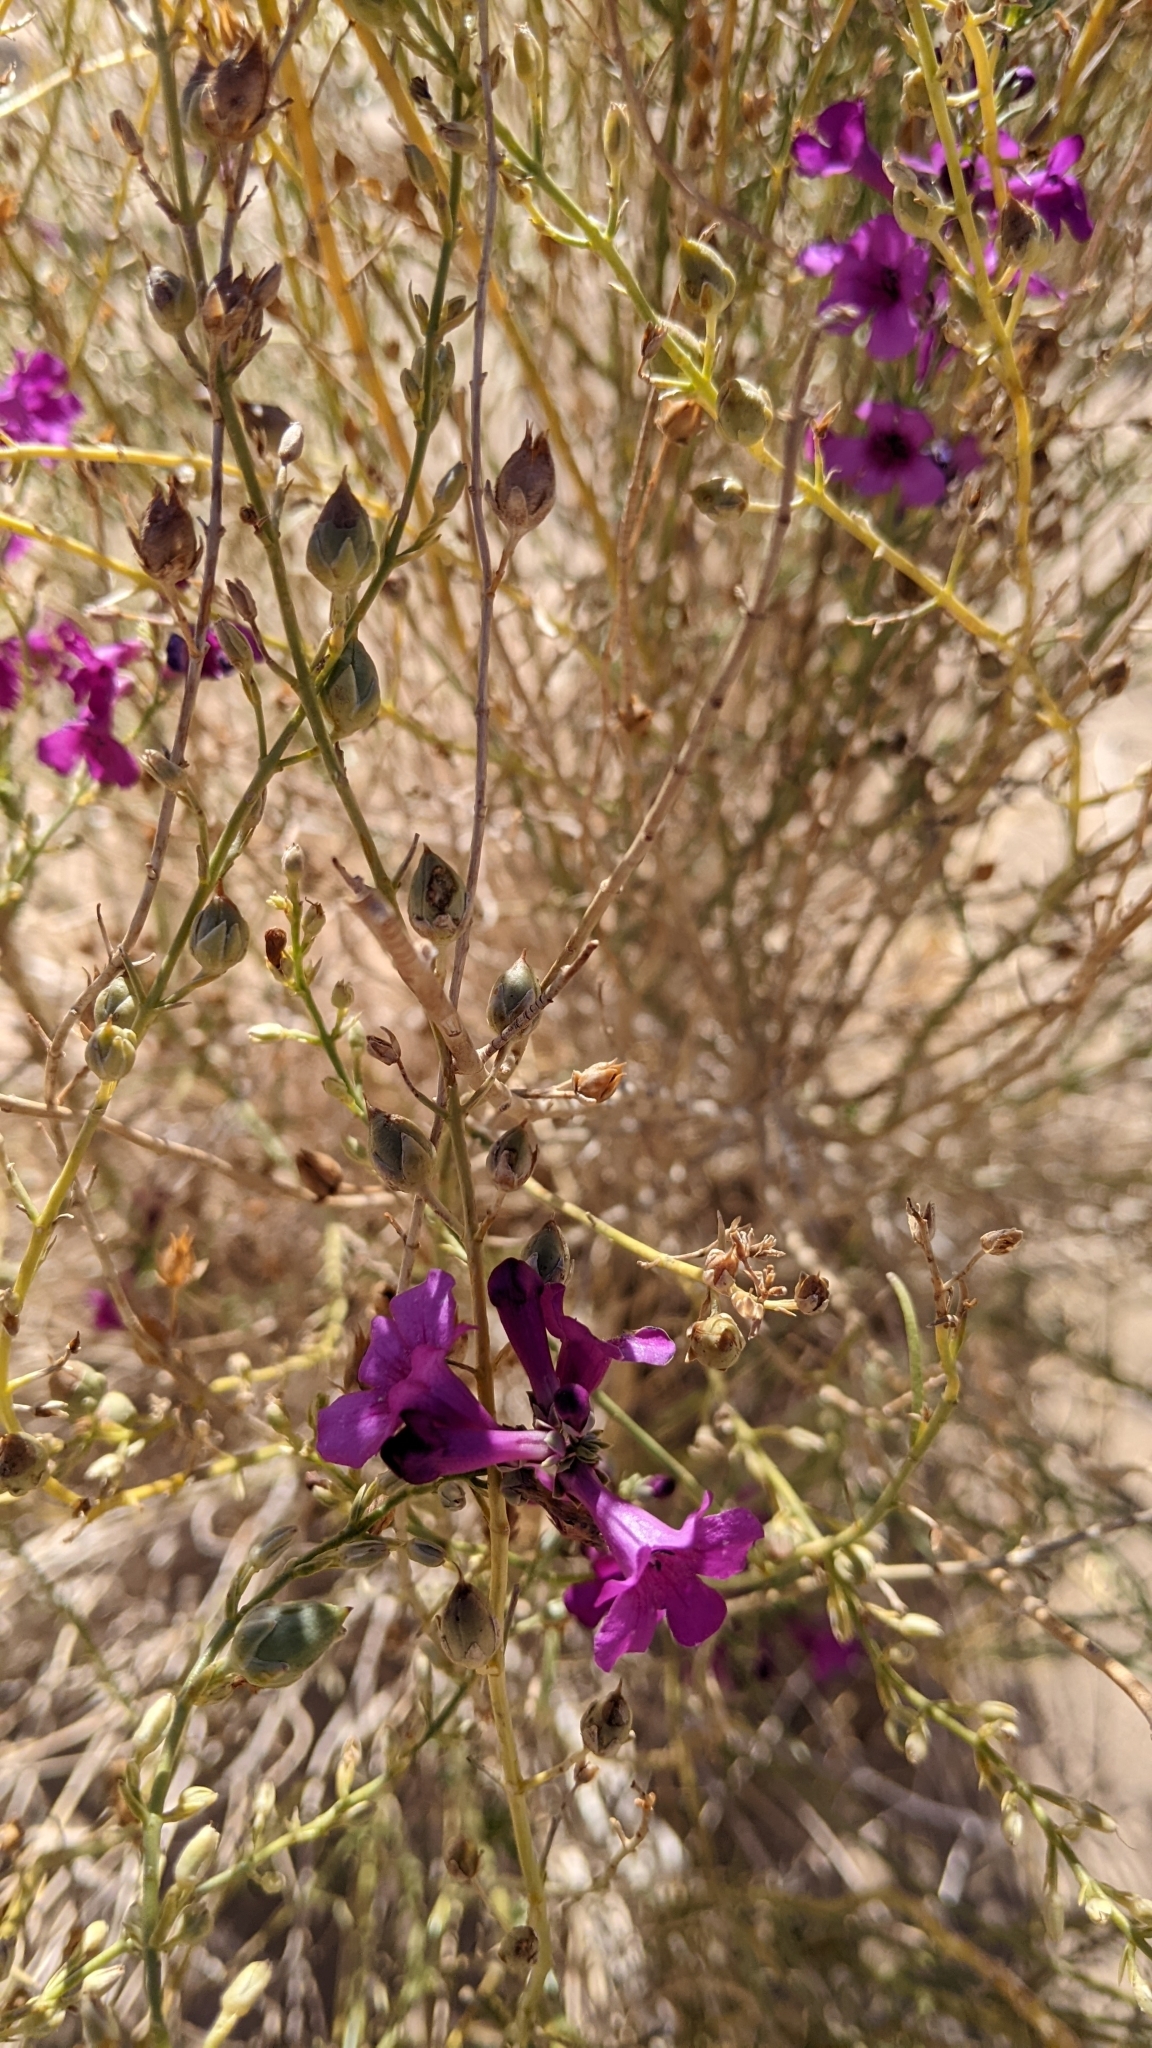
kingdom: Plantae
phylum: Tracheophyta
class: Magnoliopsida
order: Lamiales
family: Plantaginaceae
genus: Penstemon
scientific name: Penstemon thurberi
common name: Thurber's beardtongue
